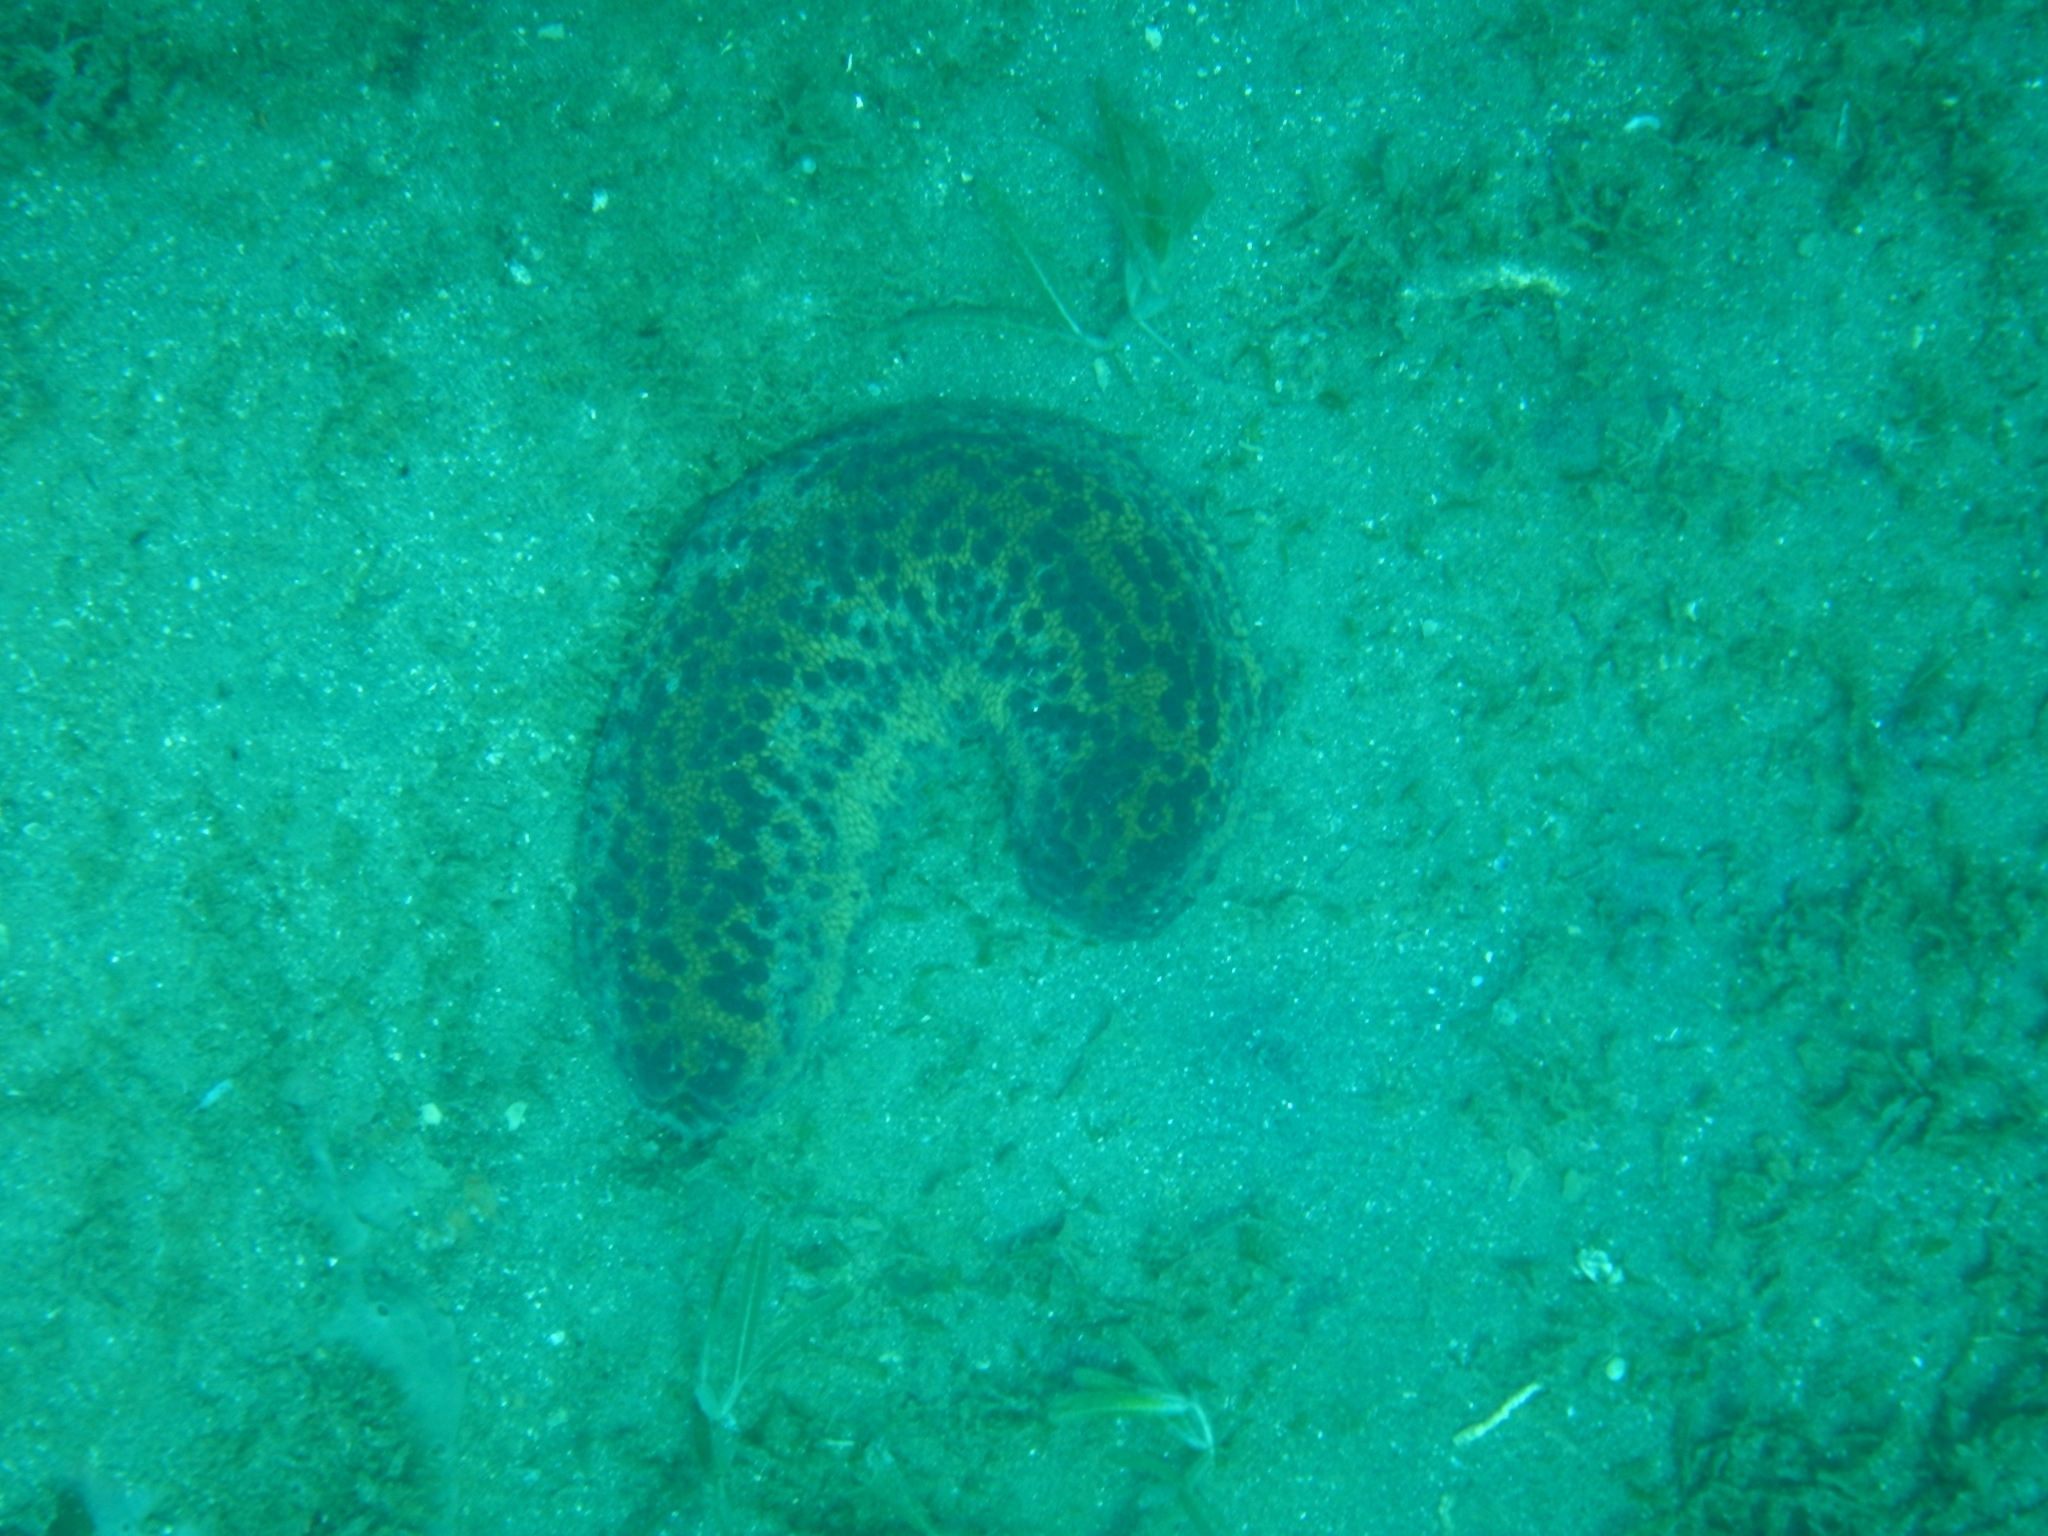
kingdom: Animalia
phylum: Echinodermata
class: Holothuroidea
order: Synallactida
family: Stichopodidae
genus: Isostichopus
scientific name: Isostichopus badionotus
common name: Chocolate chip cucumber
